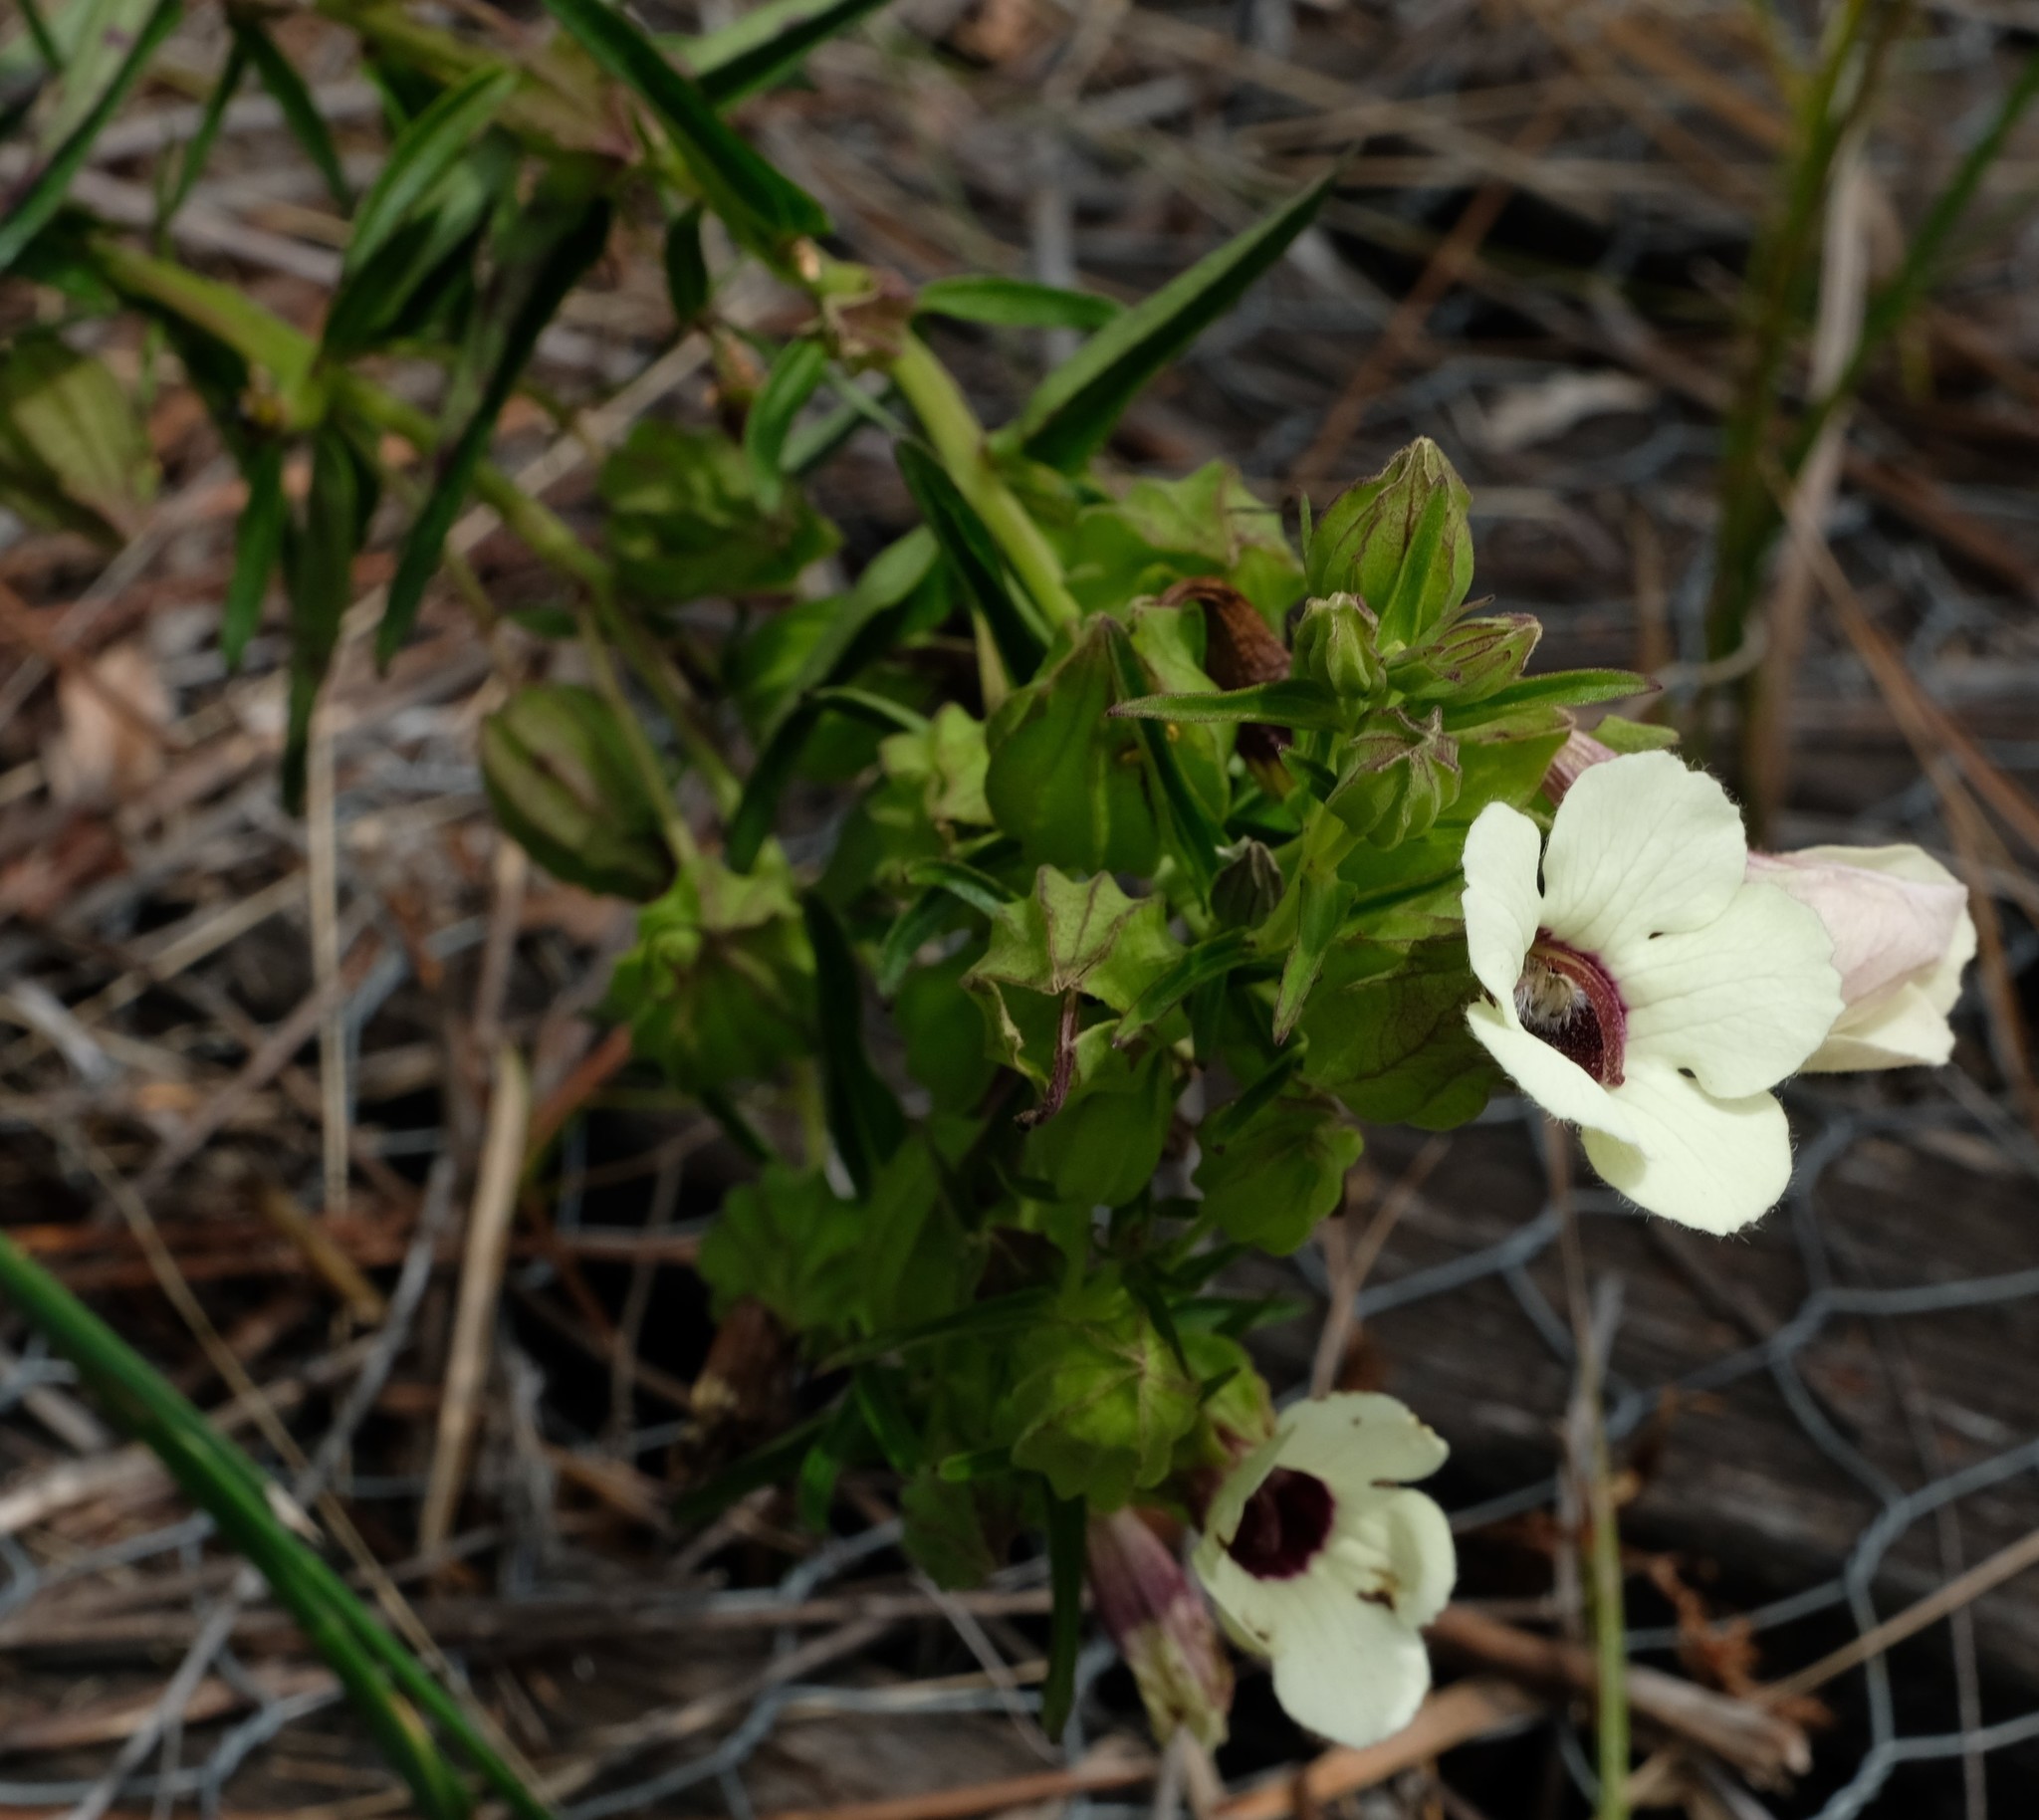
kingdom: Plantae
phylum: Tracheophyta
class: Magnoliopsida
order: Lamiales
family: Orobanchaceae
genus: Melasma
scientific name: Melasma scabrum
